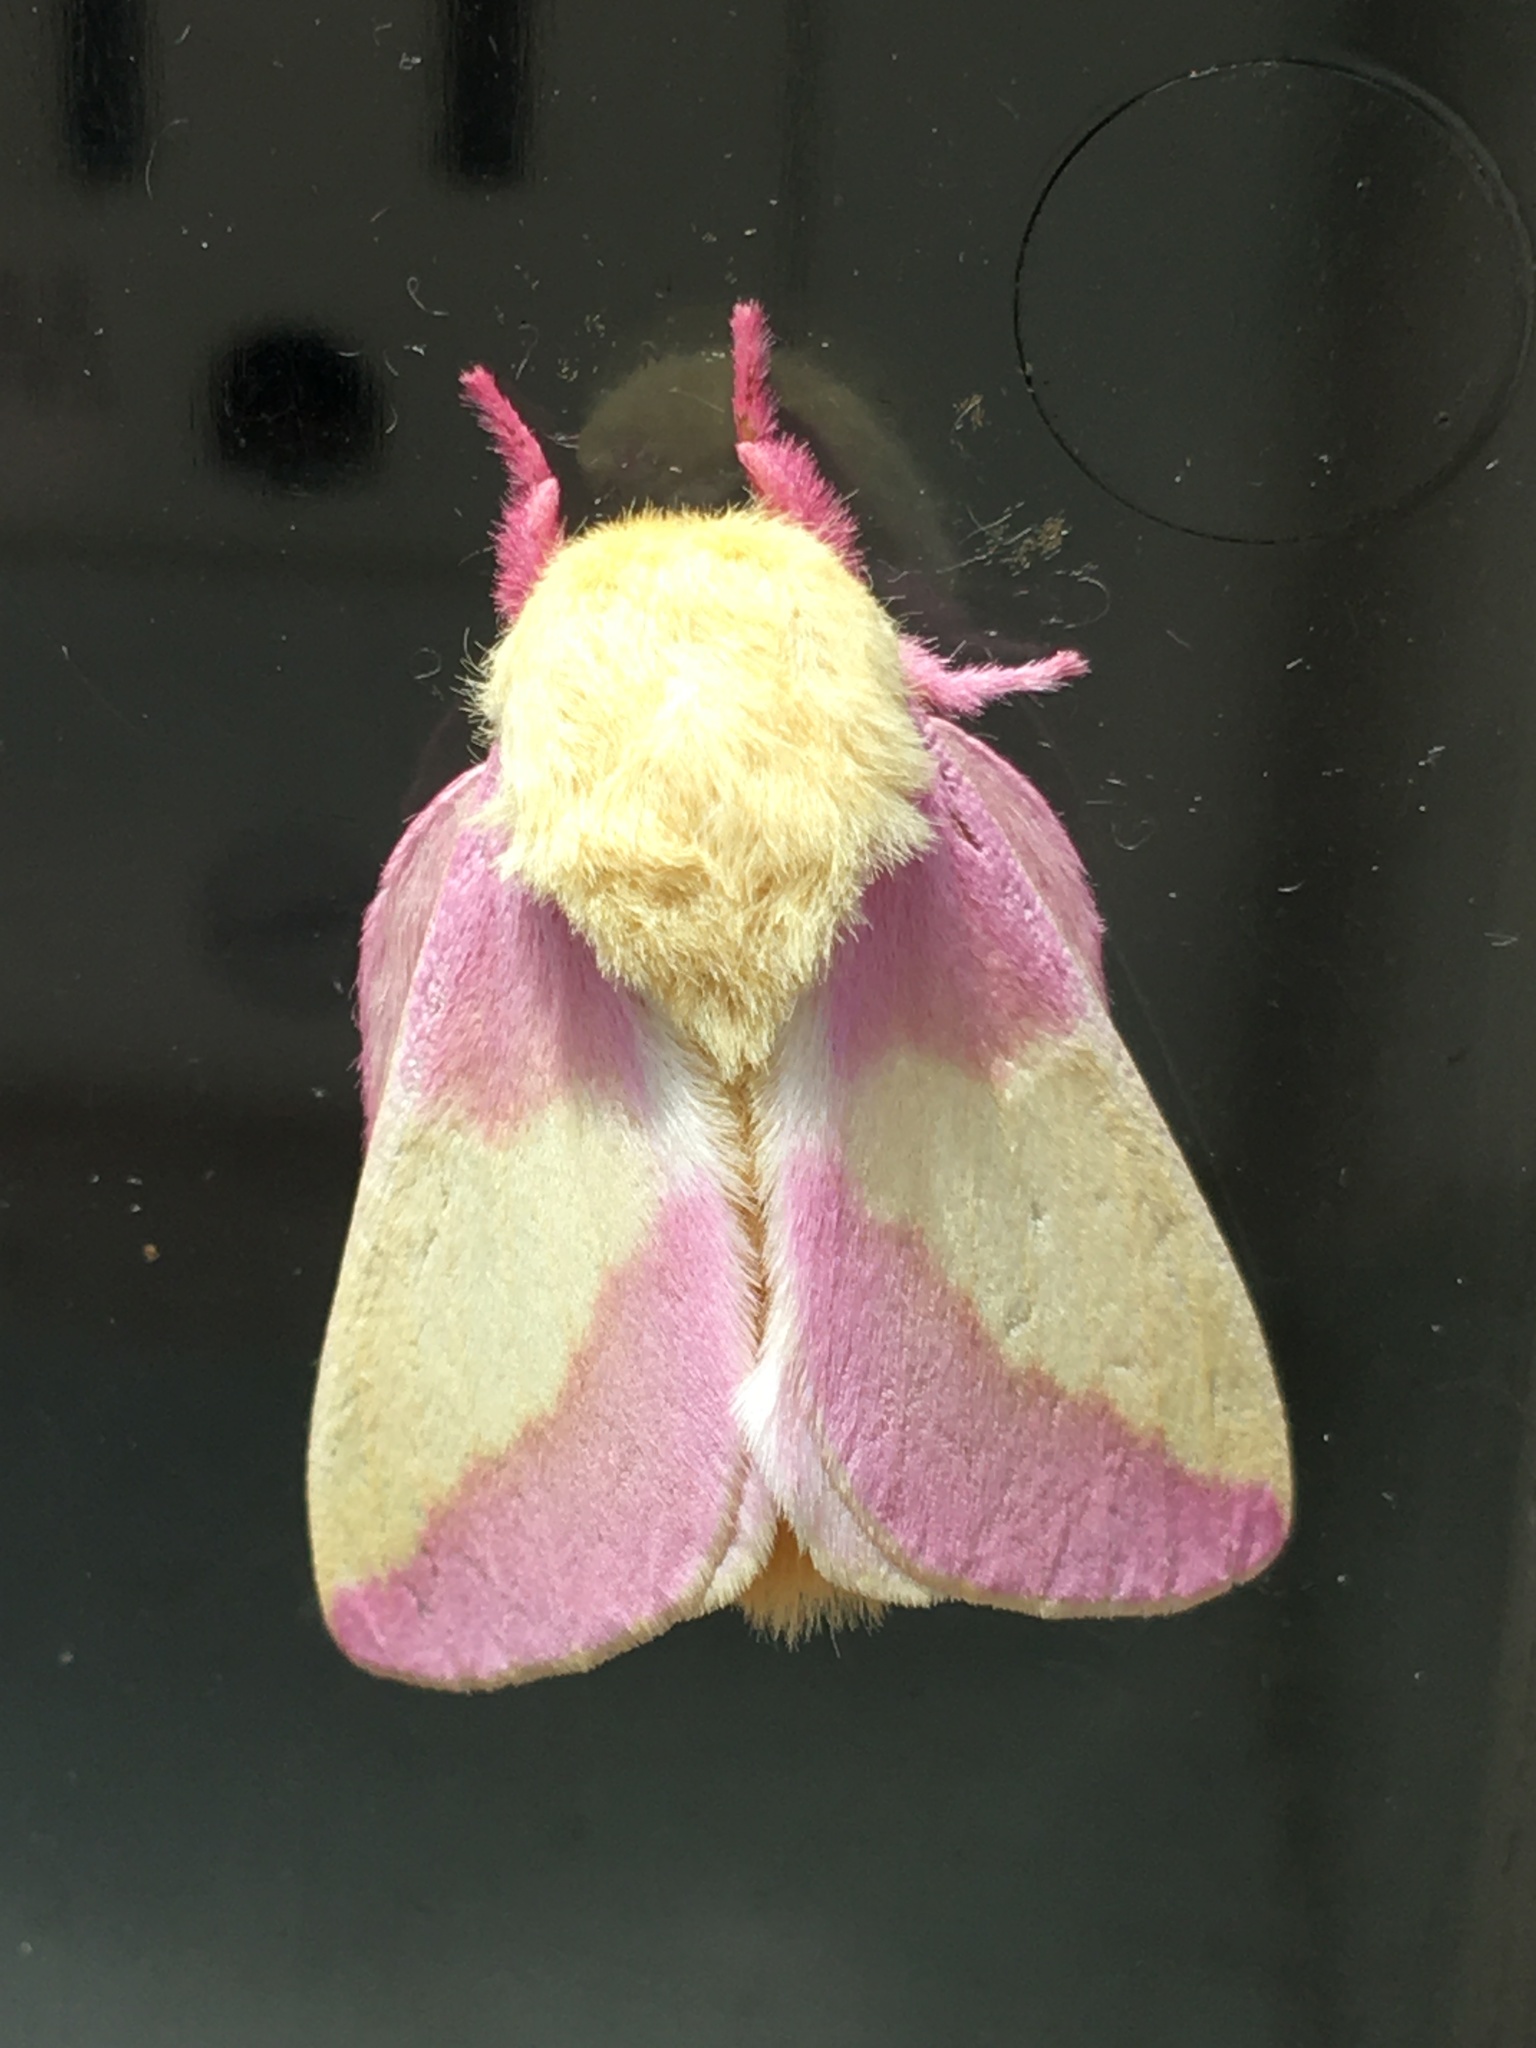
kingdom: Animalia
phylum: Arthropoda
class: Insecta
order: Lepidoptera
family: Saturniidae
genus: Dryocampa
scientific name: Dryocampa rubicunda
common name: Rosy maple moth
